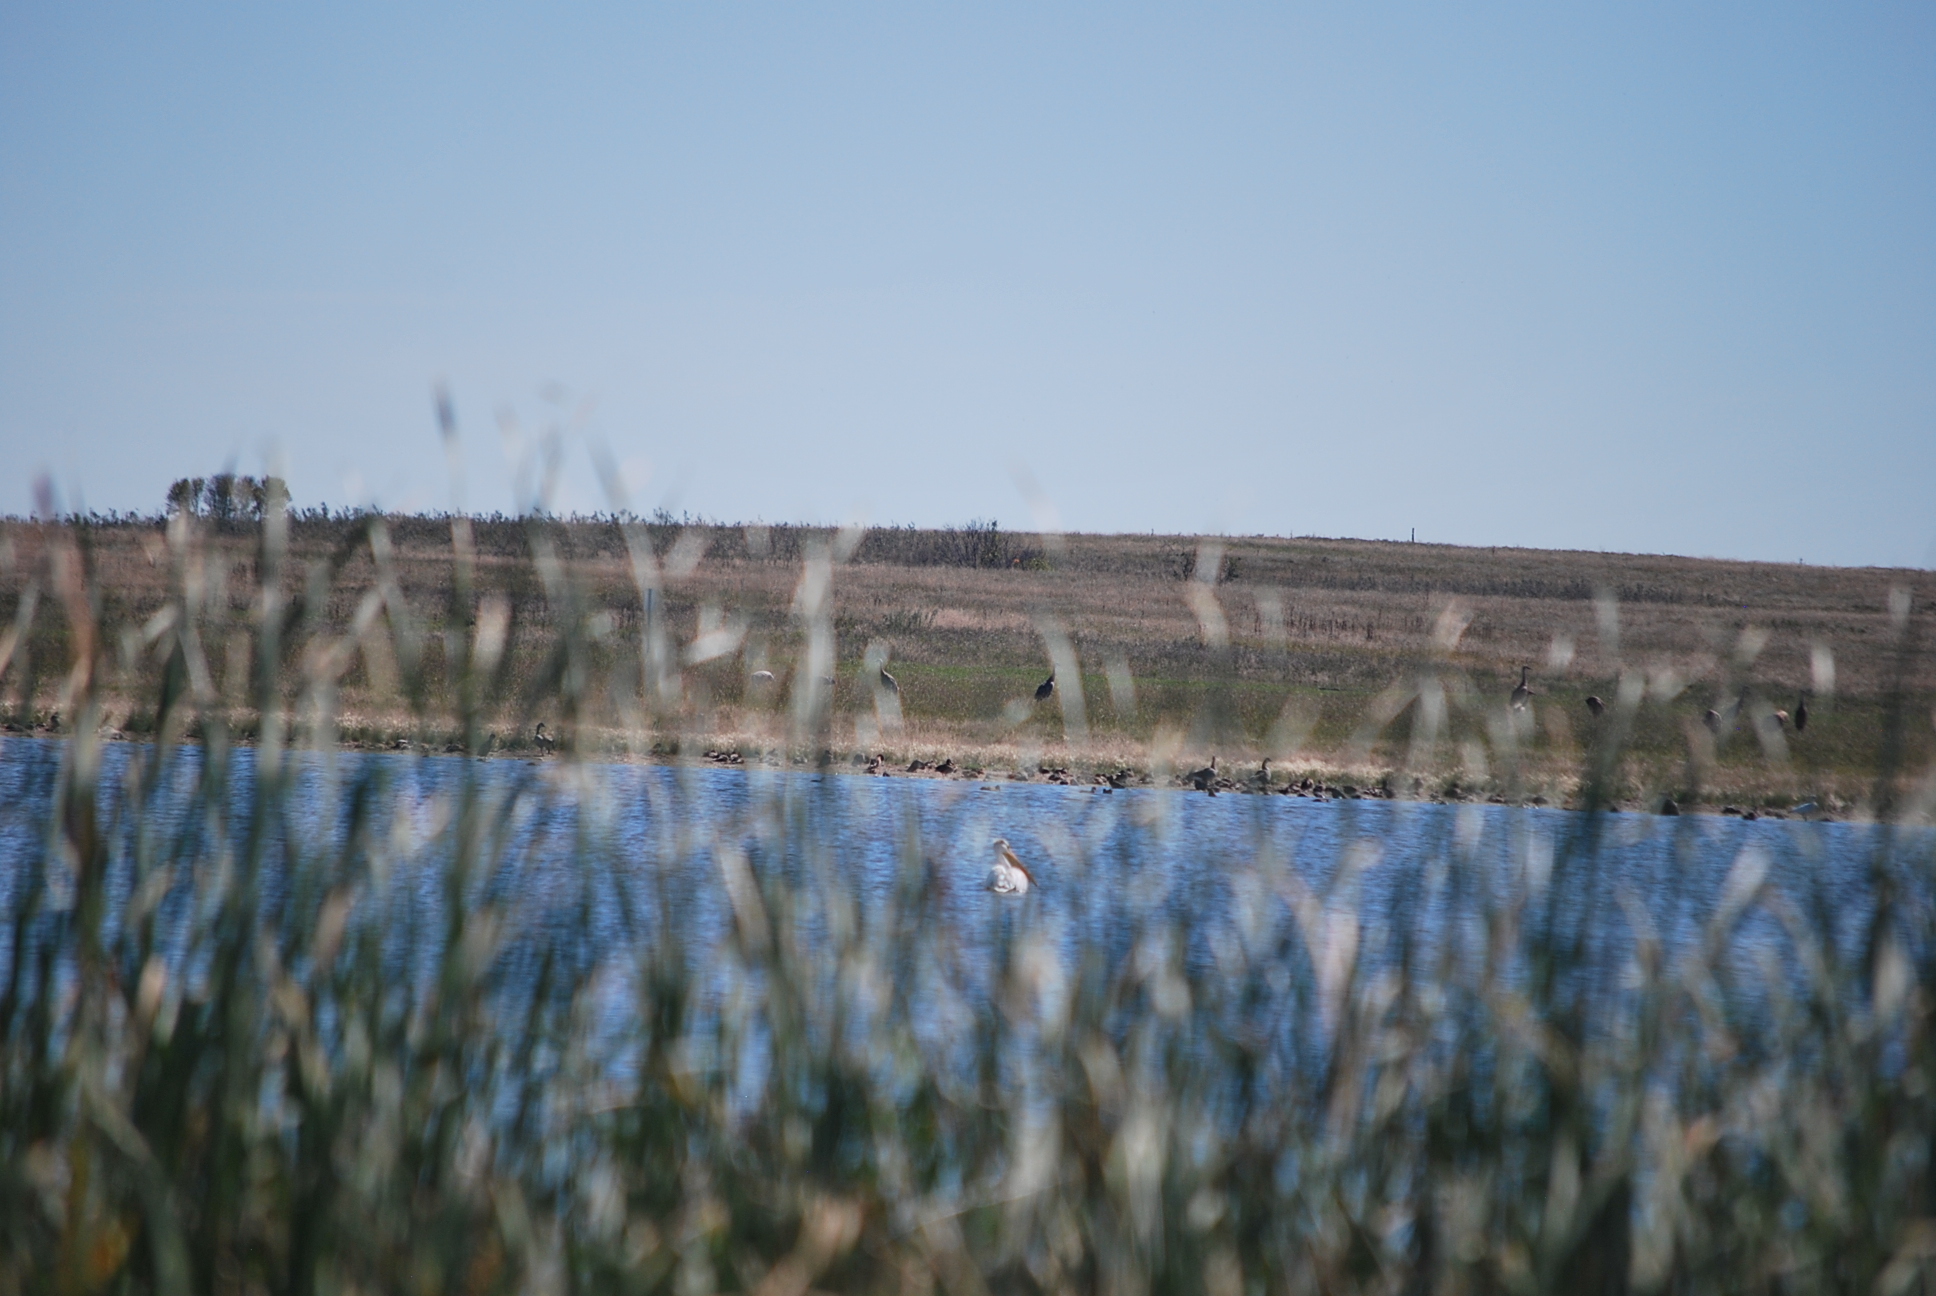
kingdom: Animalia
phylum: Chordata
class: Aves
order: Gruiformes
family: Gruidae
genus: Grus
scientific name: Grus canadensis
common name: Sandhill crane
